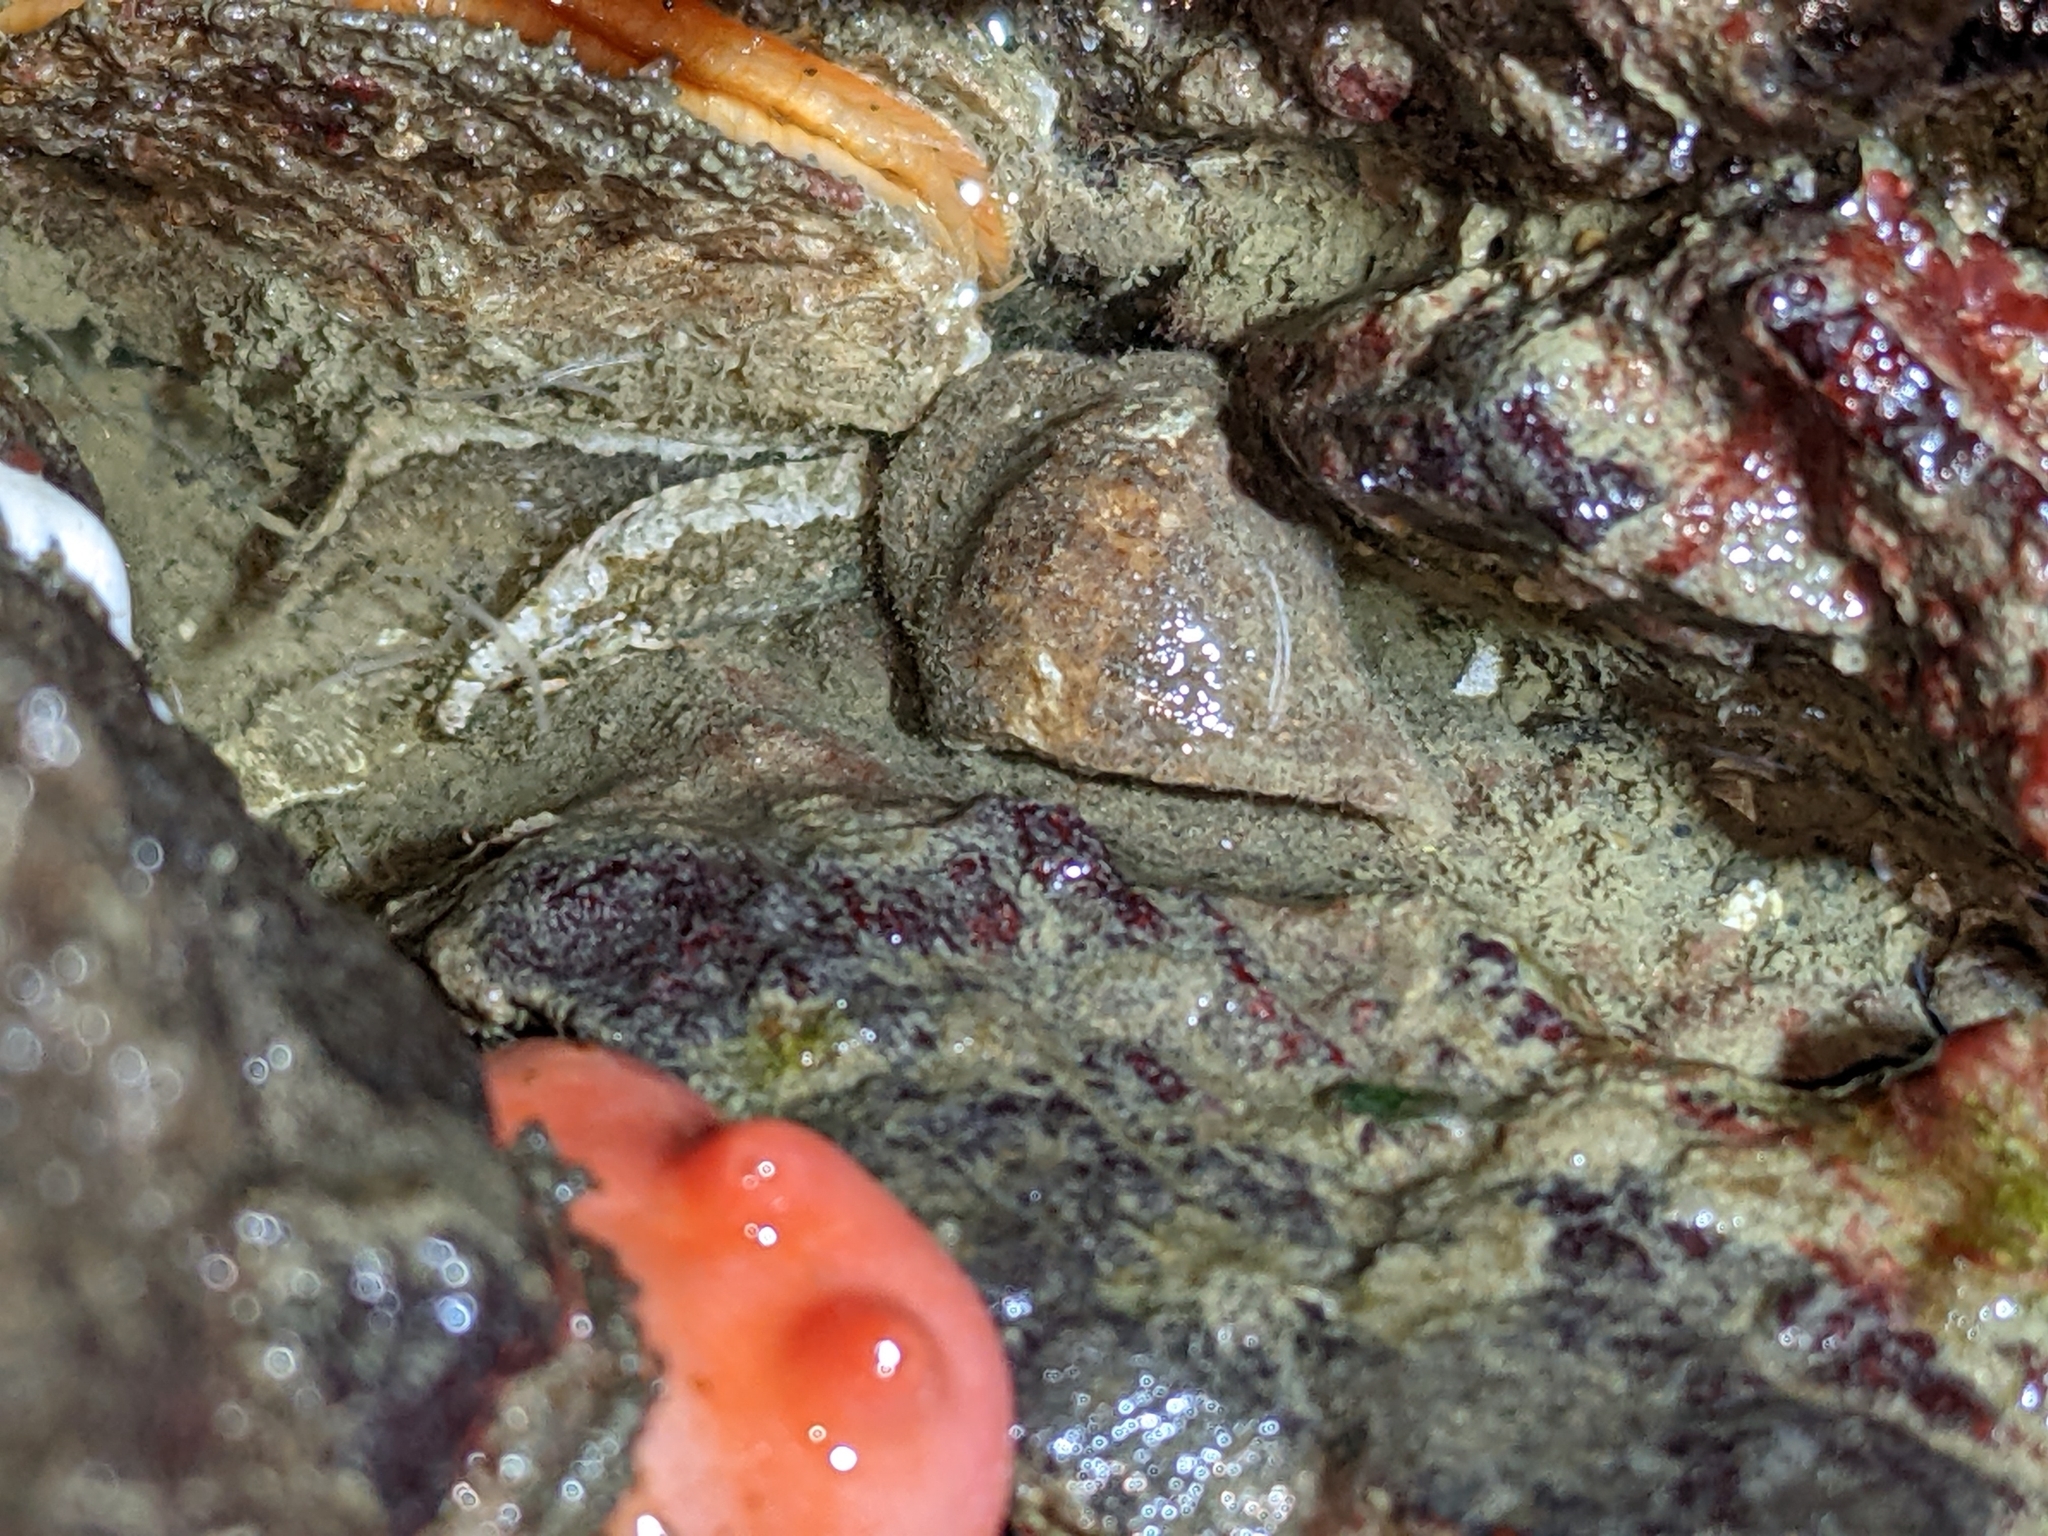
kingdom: Animalia
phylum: Chordata
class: Ascidiacea
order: Stolidobranchia
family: Styelidae
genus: Cnemidocarpa
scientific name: Cnemidocarpa finmarkiensis
